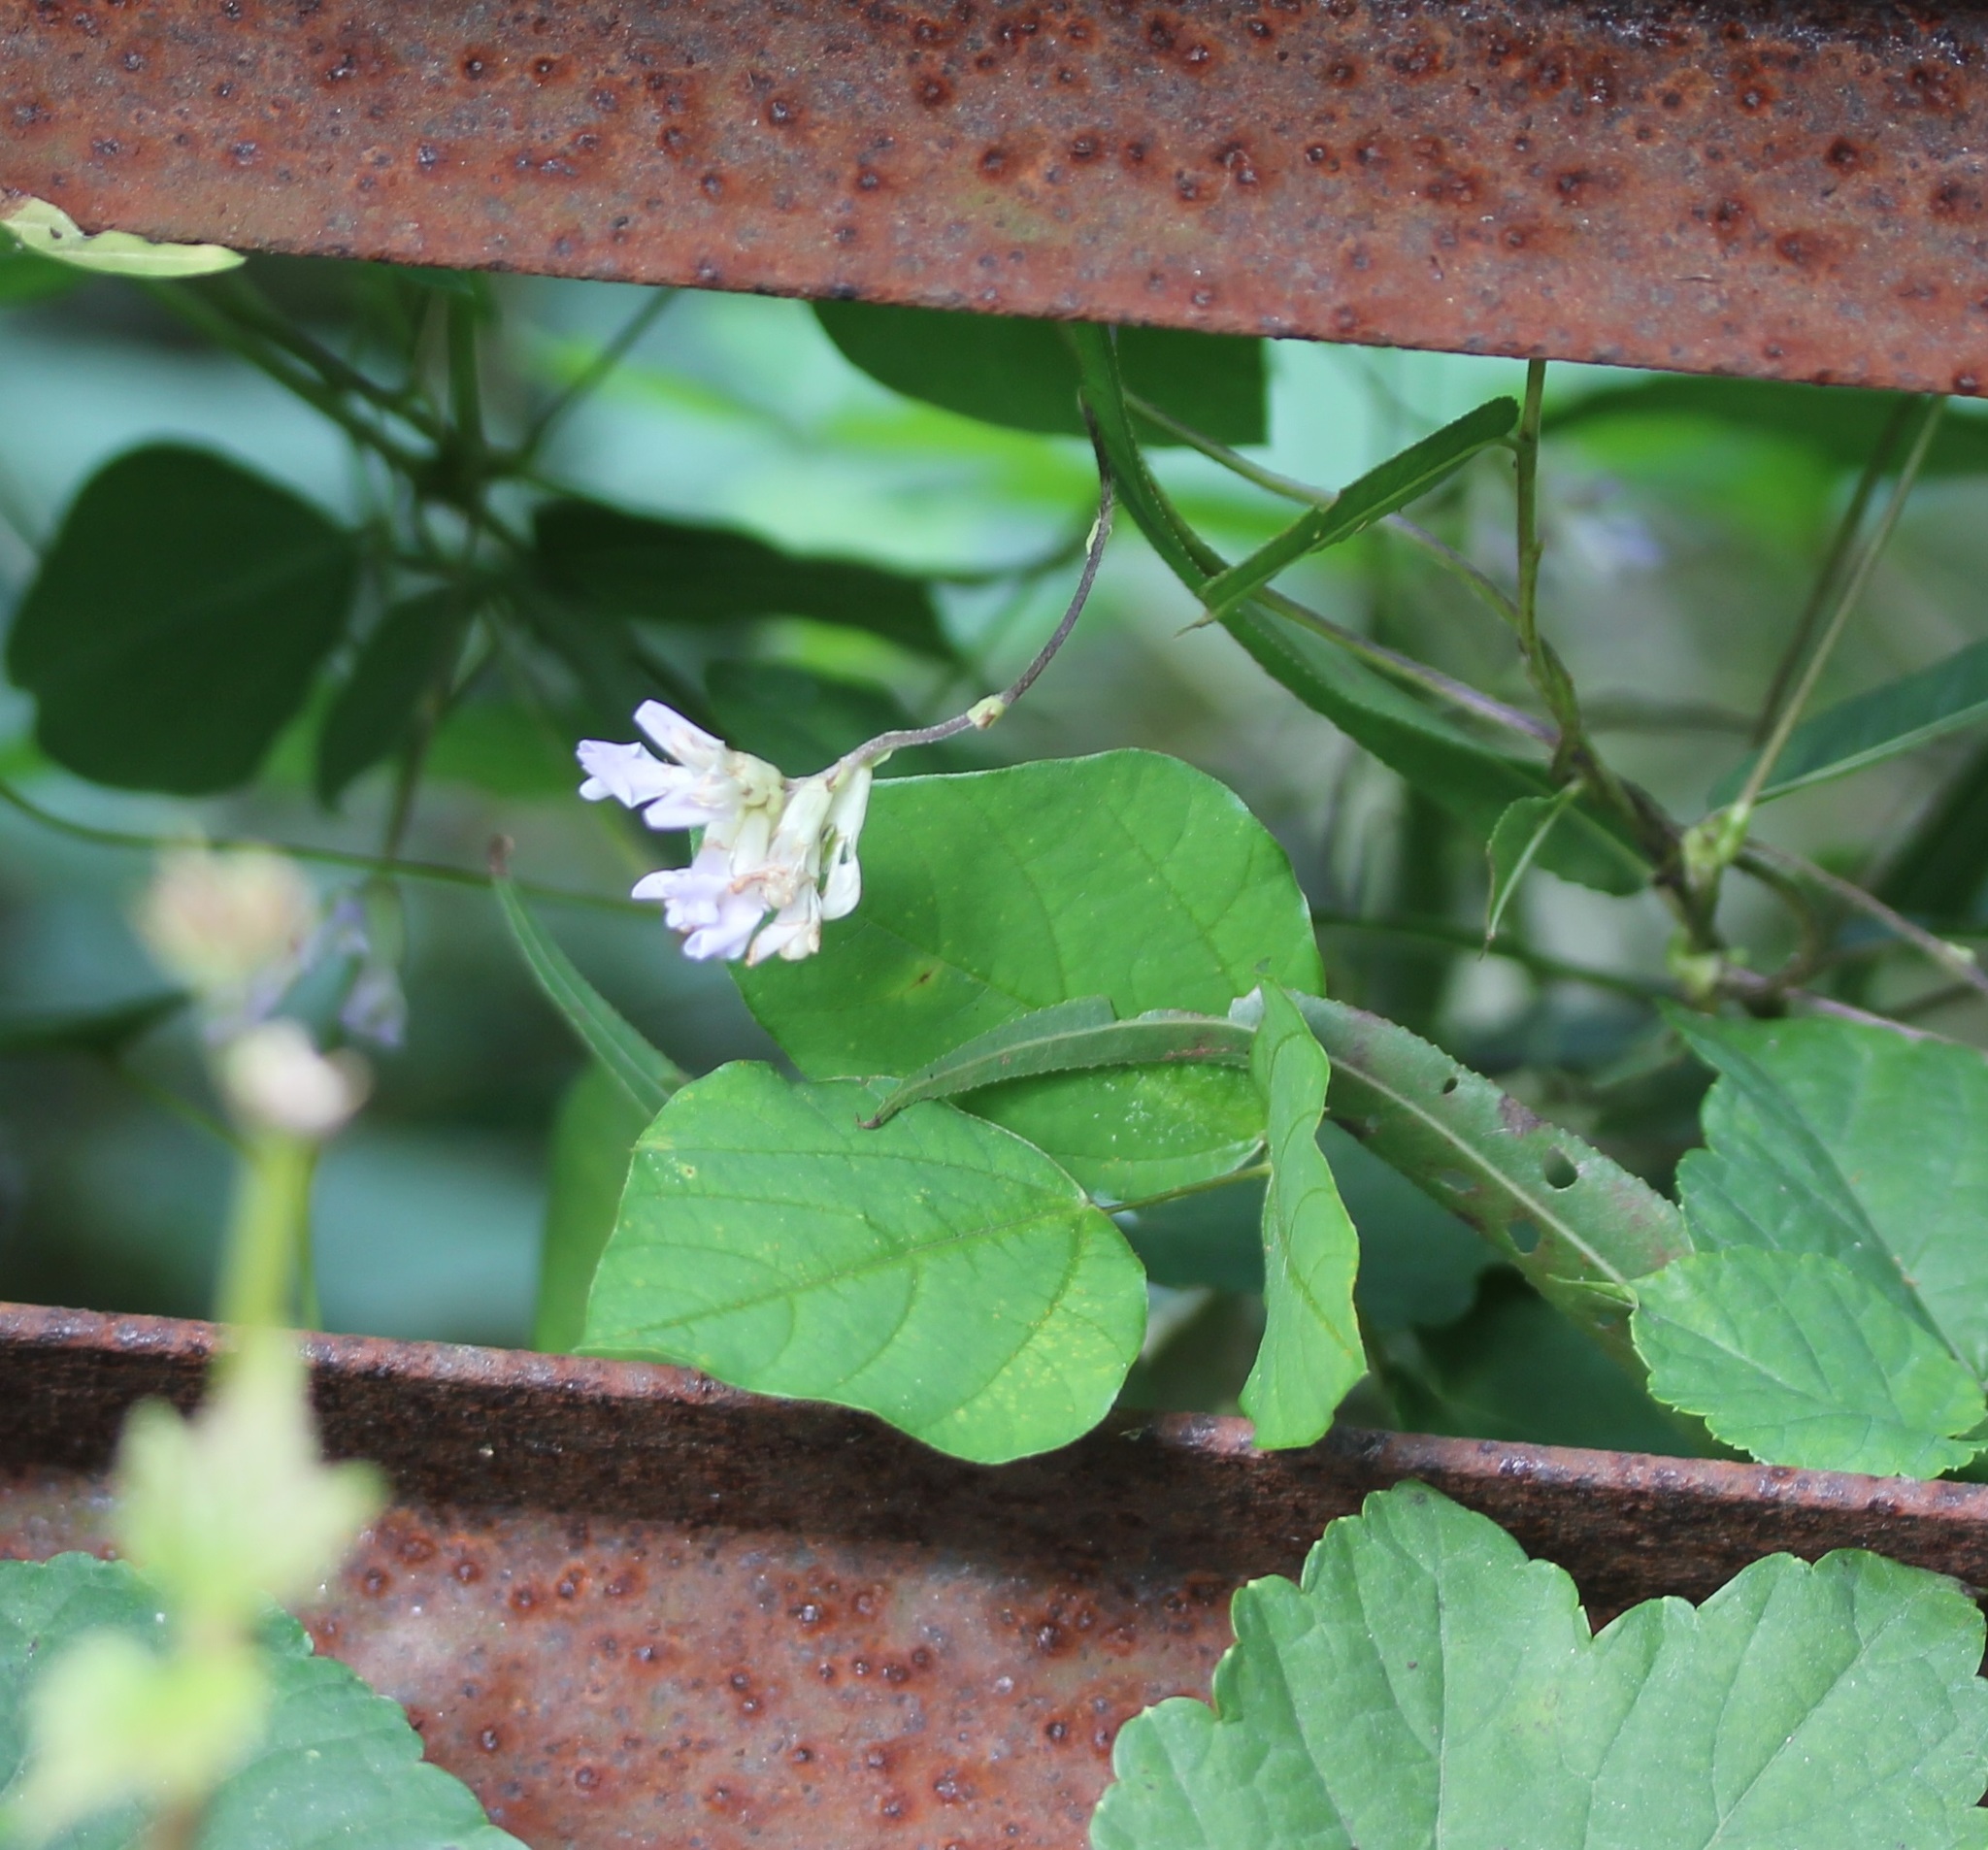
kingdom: Plantae
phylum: Tracheophyta
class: Magnoliopsida
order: Fabales
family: Fabaceae
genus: Amphicarpaea
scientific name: Amphicarpaea bracteata
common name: American hog peanut
